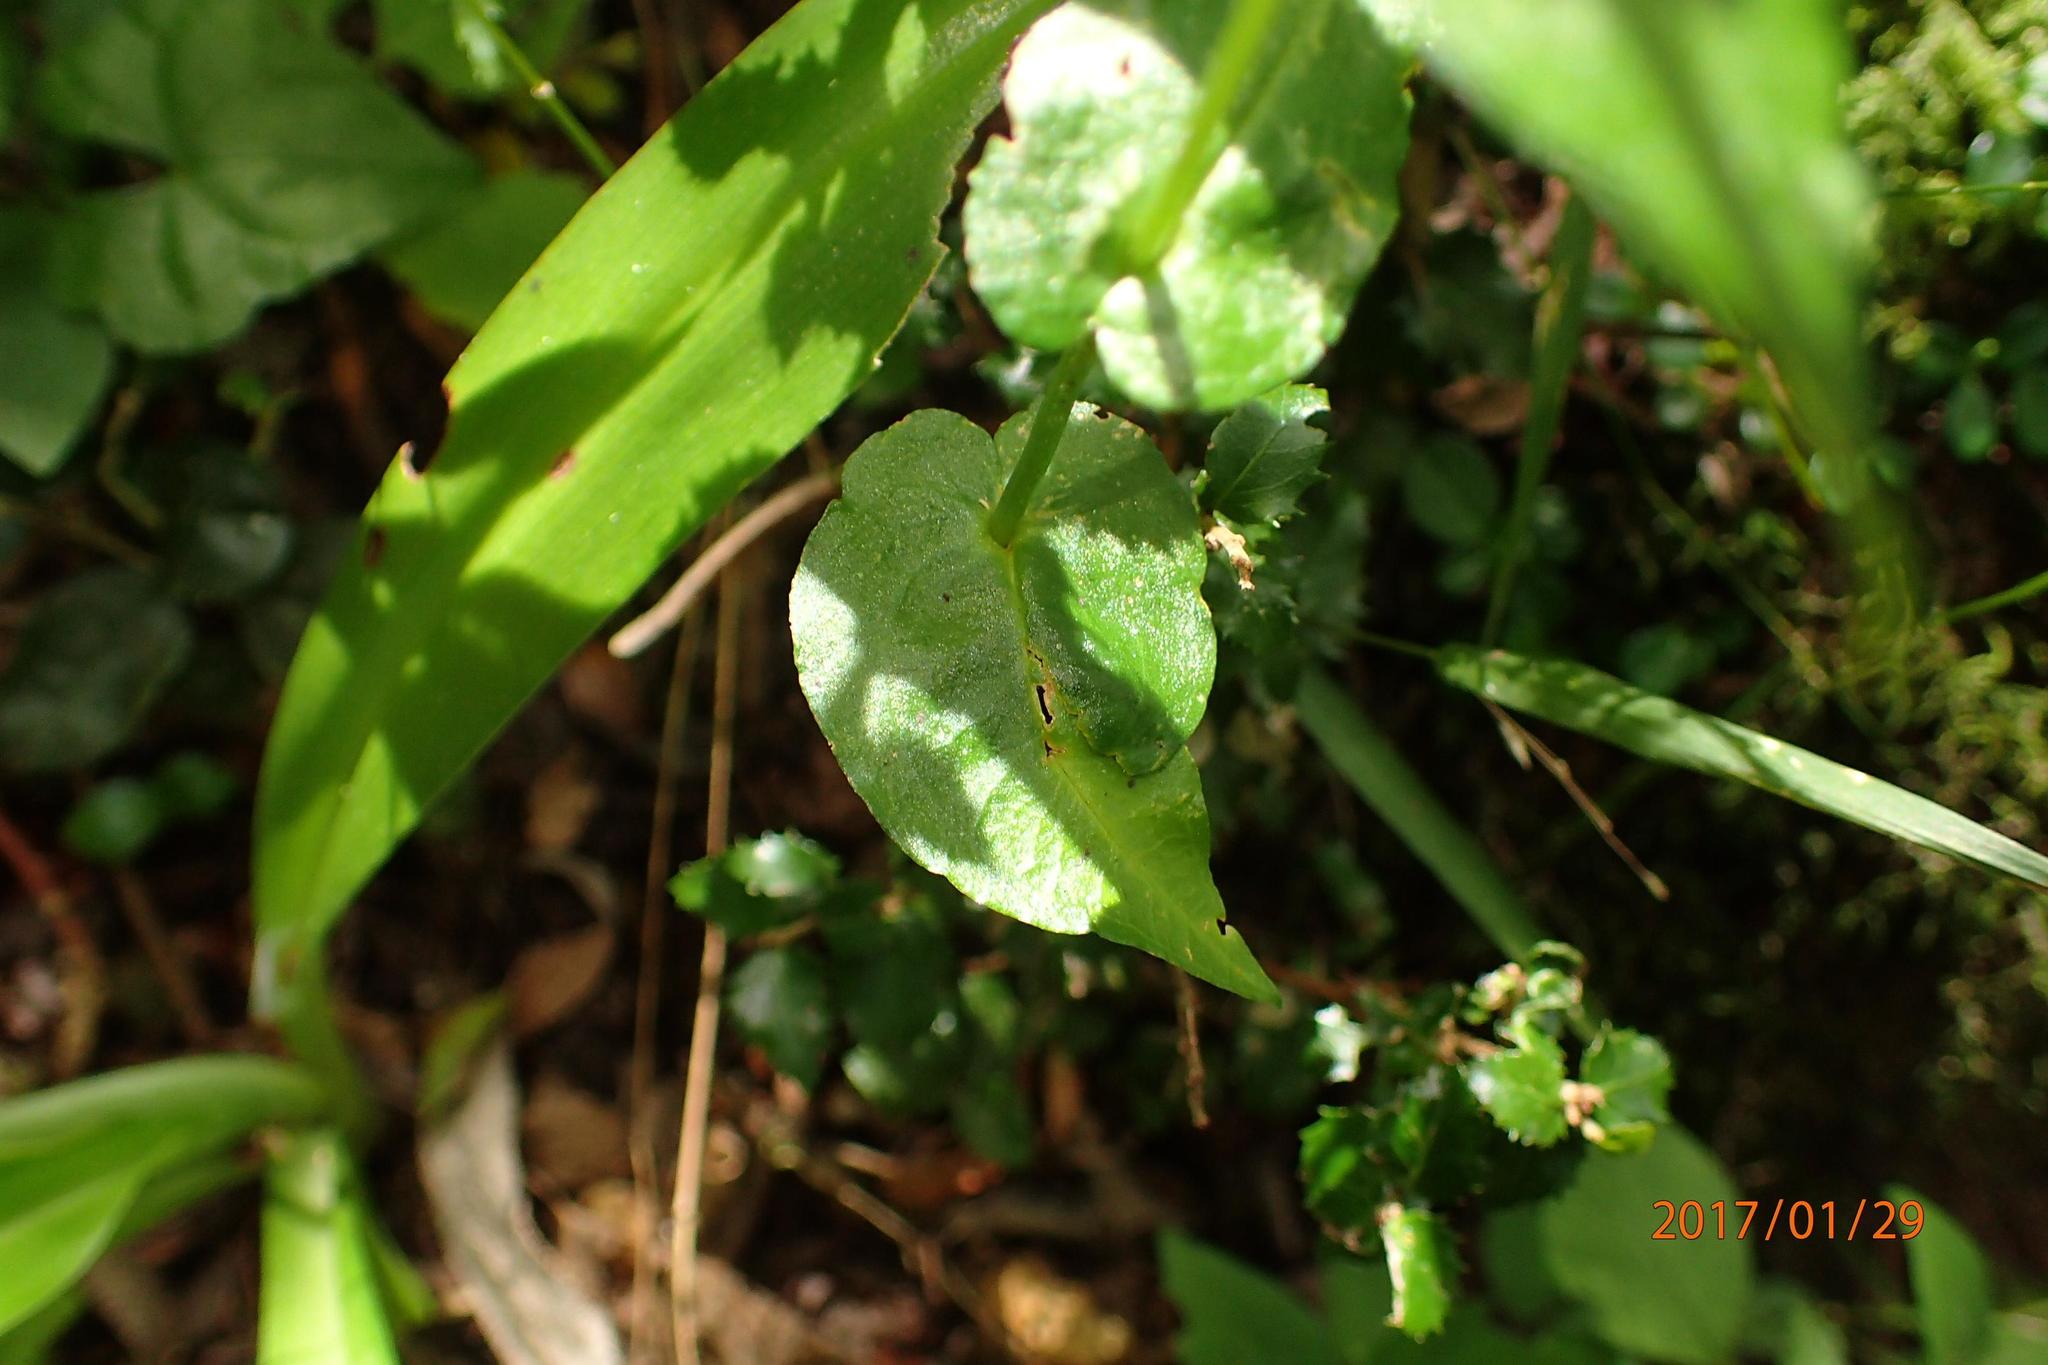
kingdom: Plantae
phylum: Tracheophyta
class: Liliopsida
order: Asparagales
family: Orchidaceae
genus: Disperis
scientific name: Disperis fanniniae
